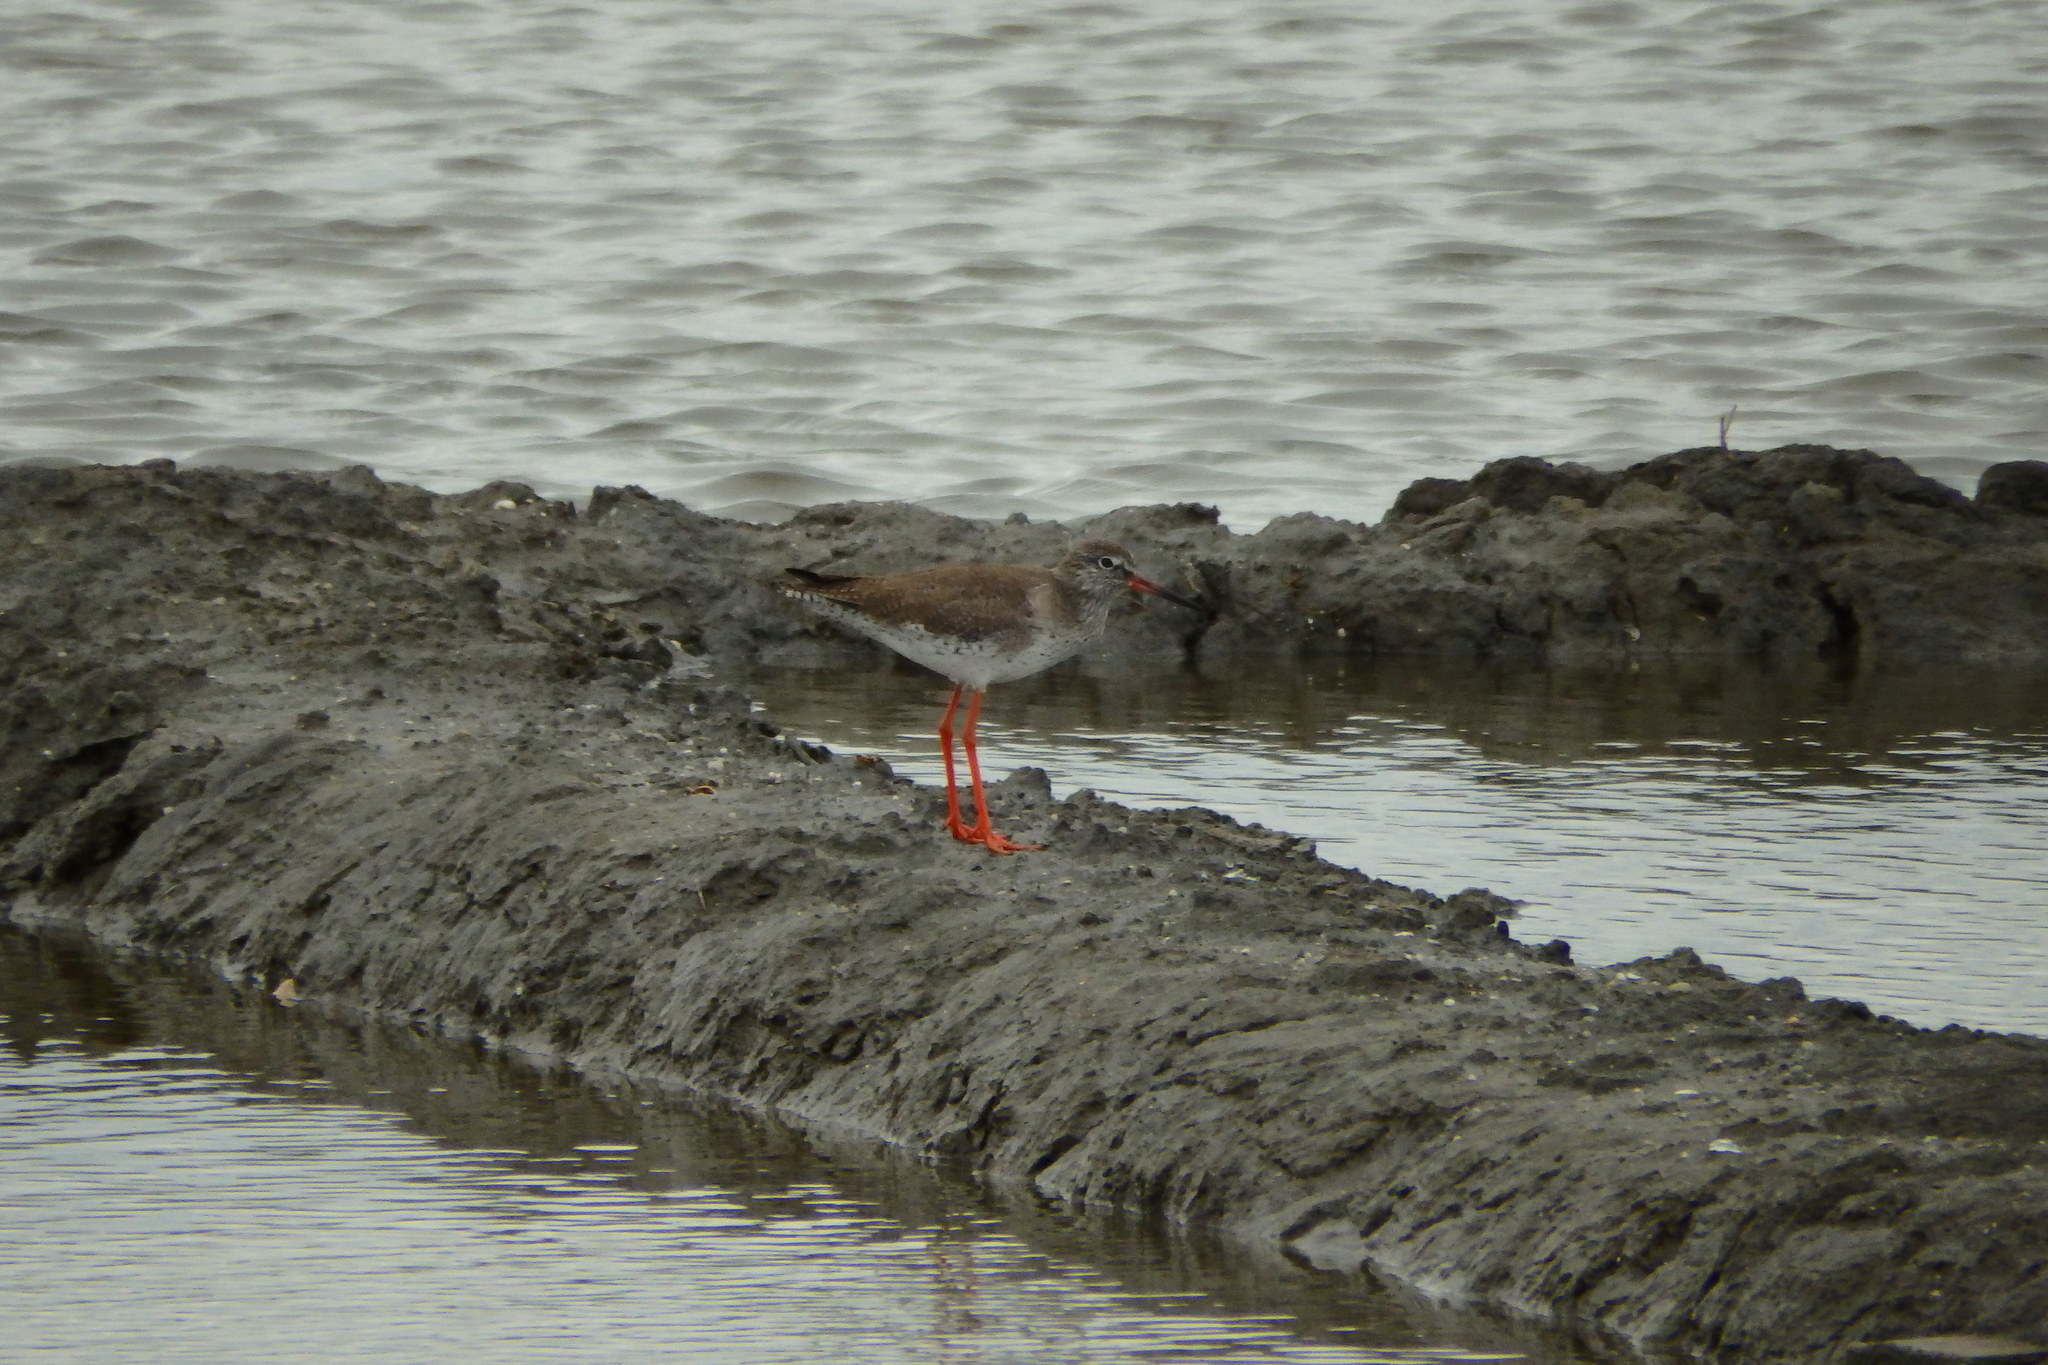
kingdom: Animalia
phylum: Chordata
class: Aves
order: Charadriiformes
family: Scolopacidae
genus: Tringa
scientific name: Tringa totanus
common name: Common redshank
